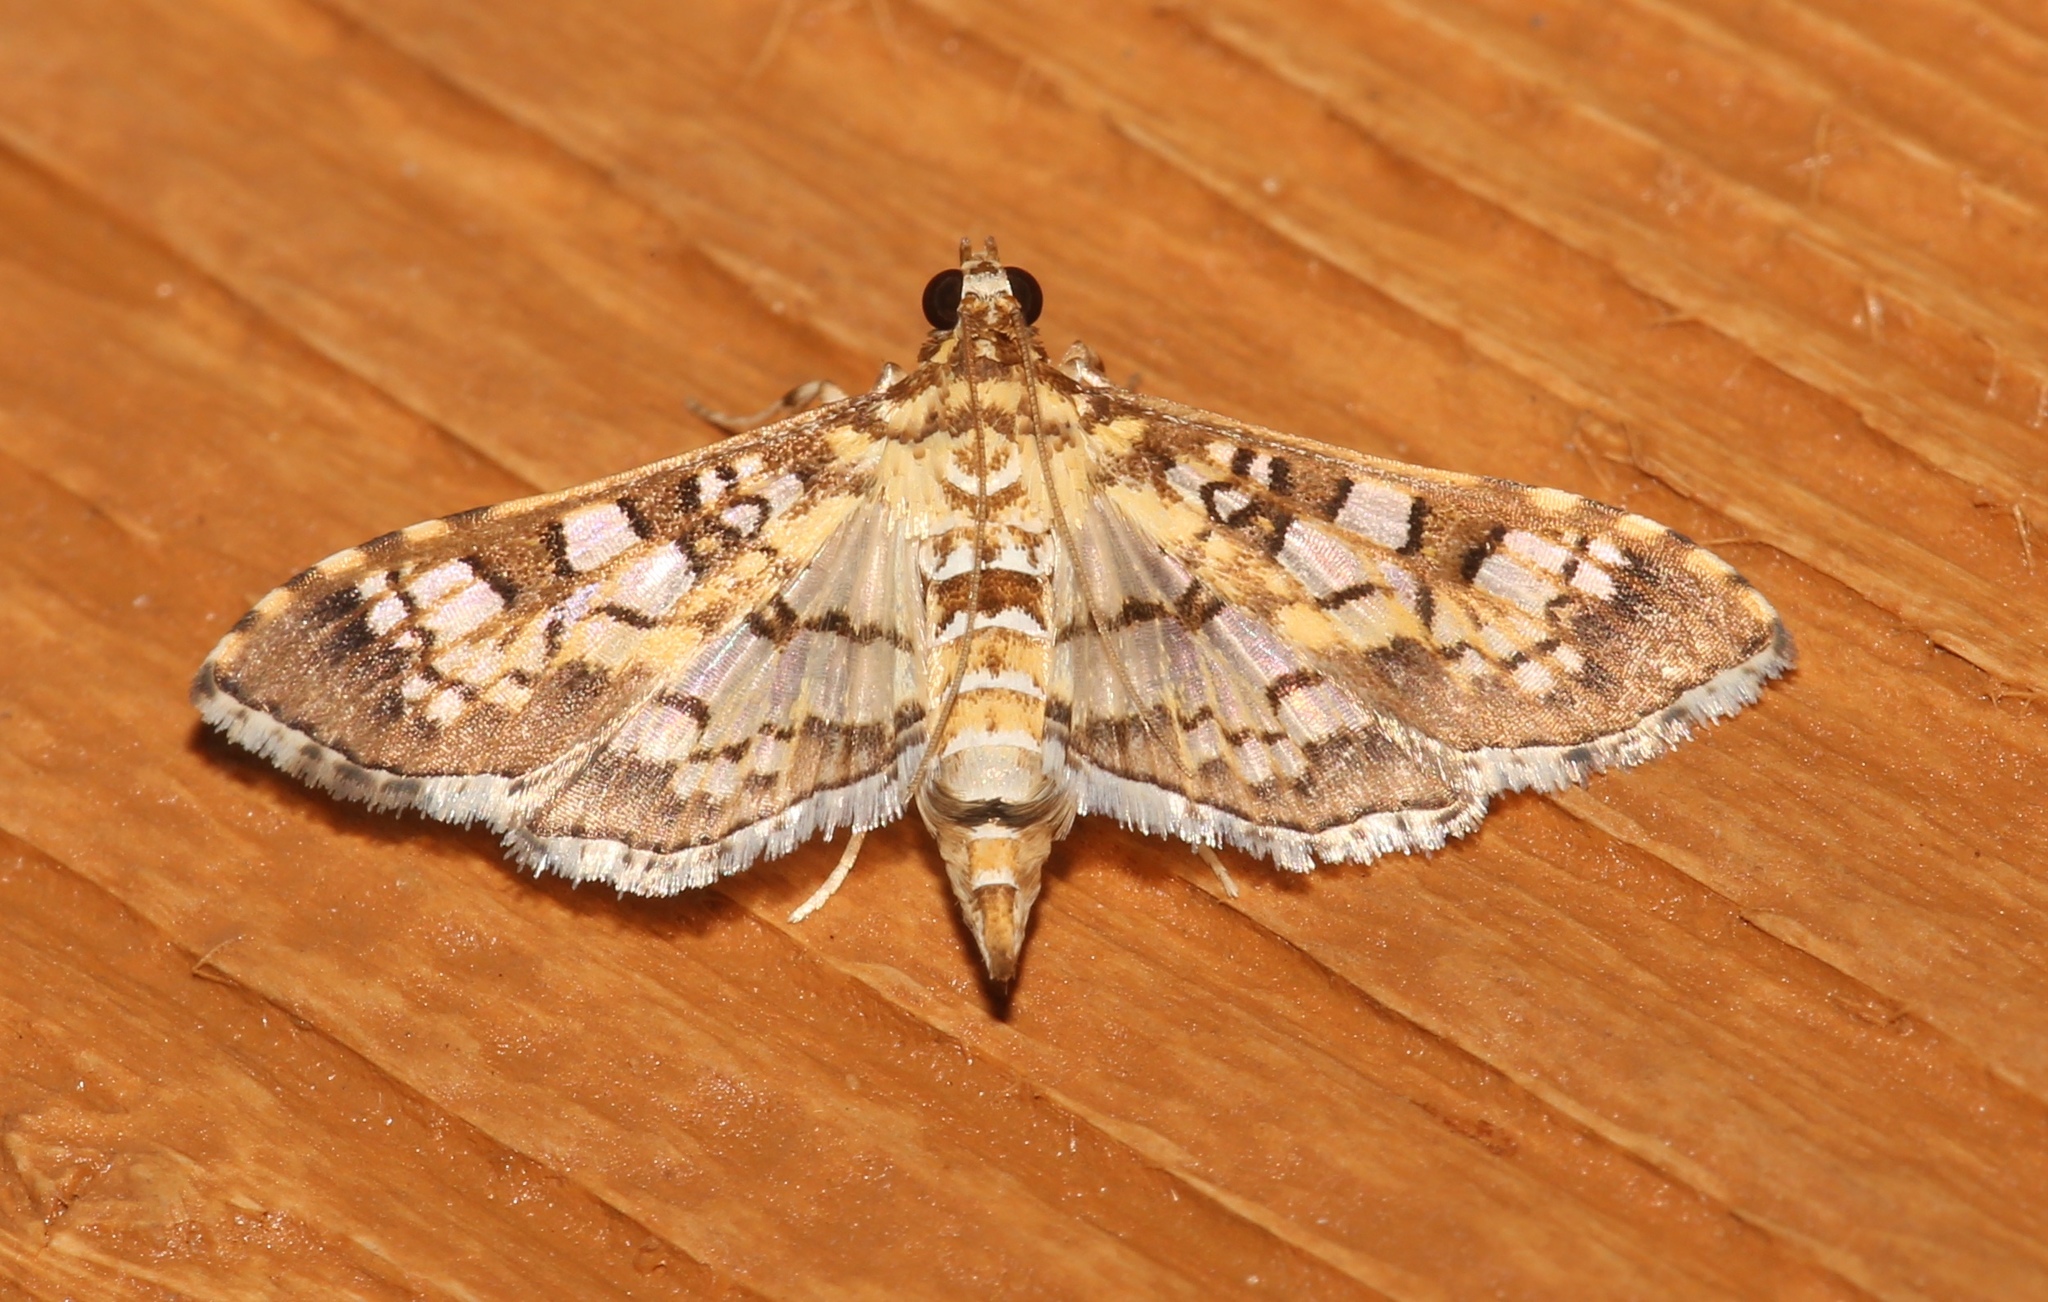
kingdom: Animalia
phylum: Arthropoda
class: Insecta
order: Lepidoptera
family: Crambidae
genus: Samea
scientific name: Samea ecclesialis
